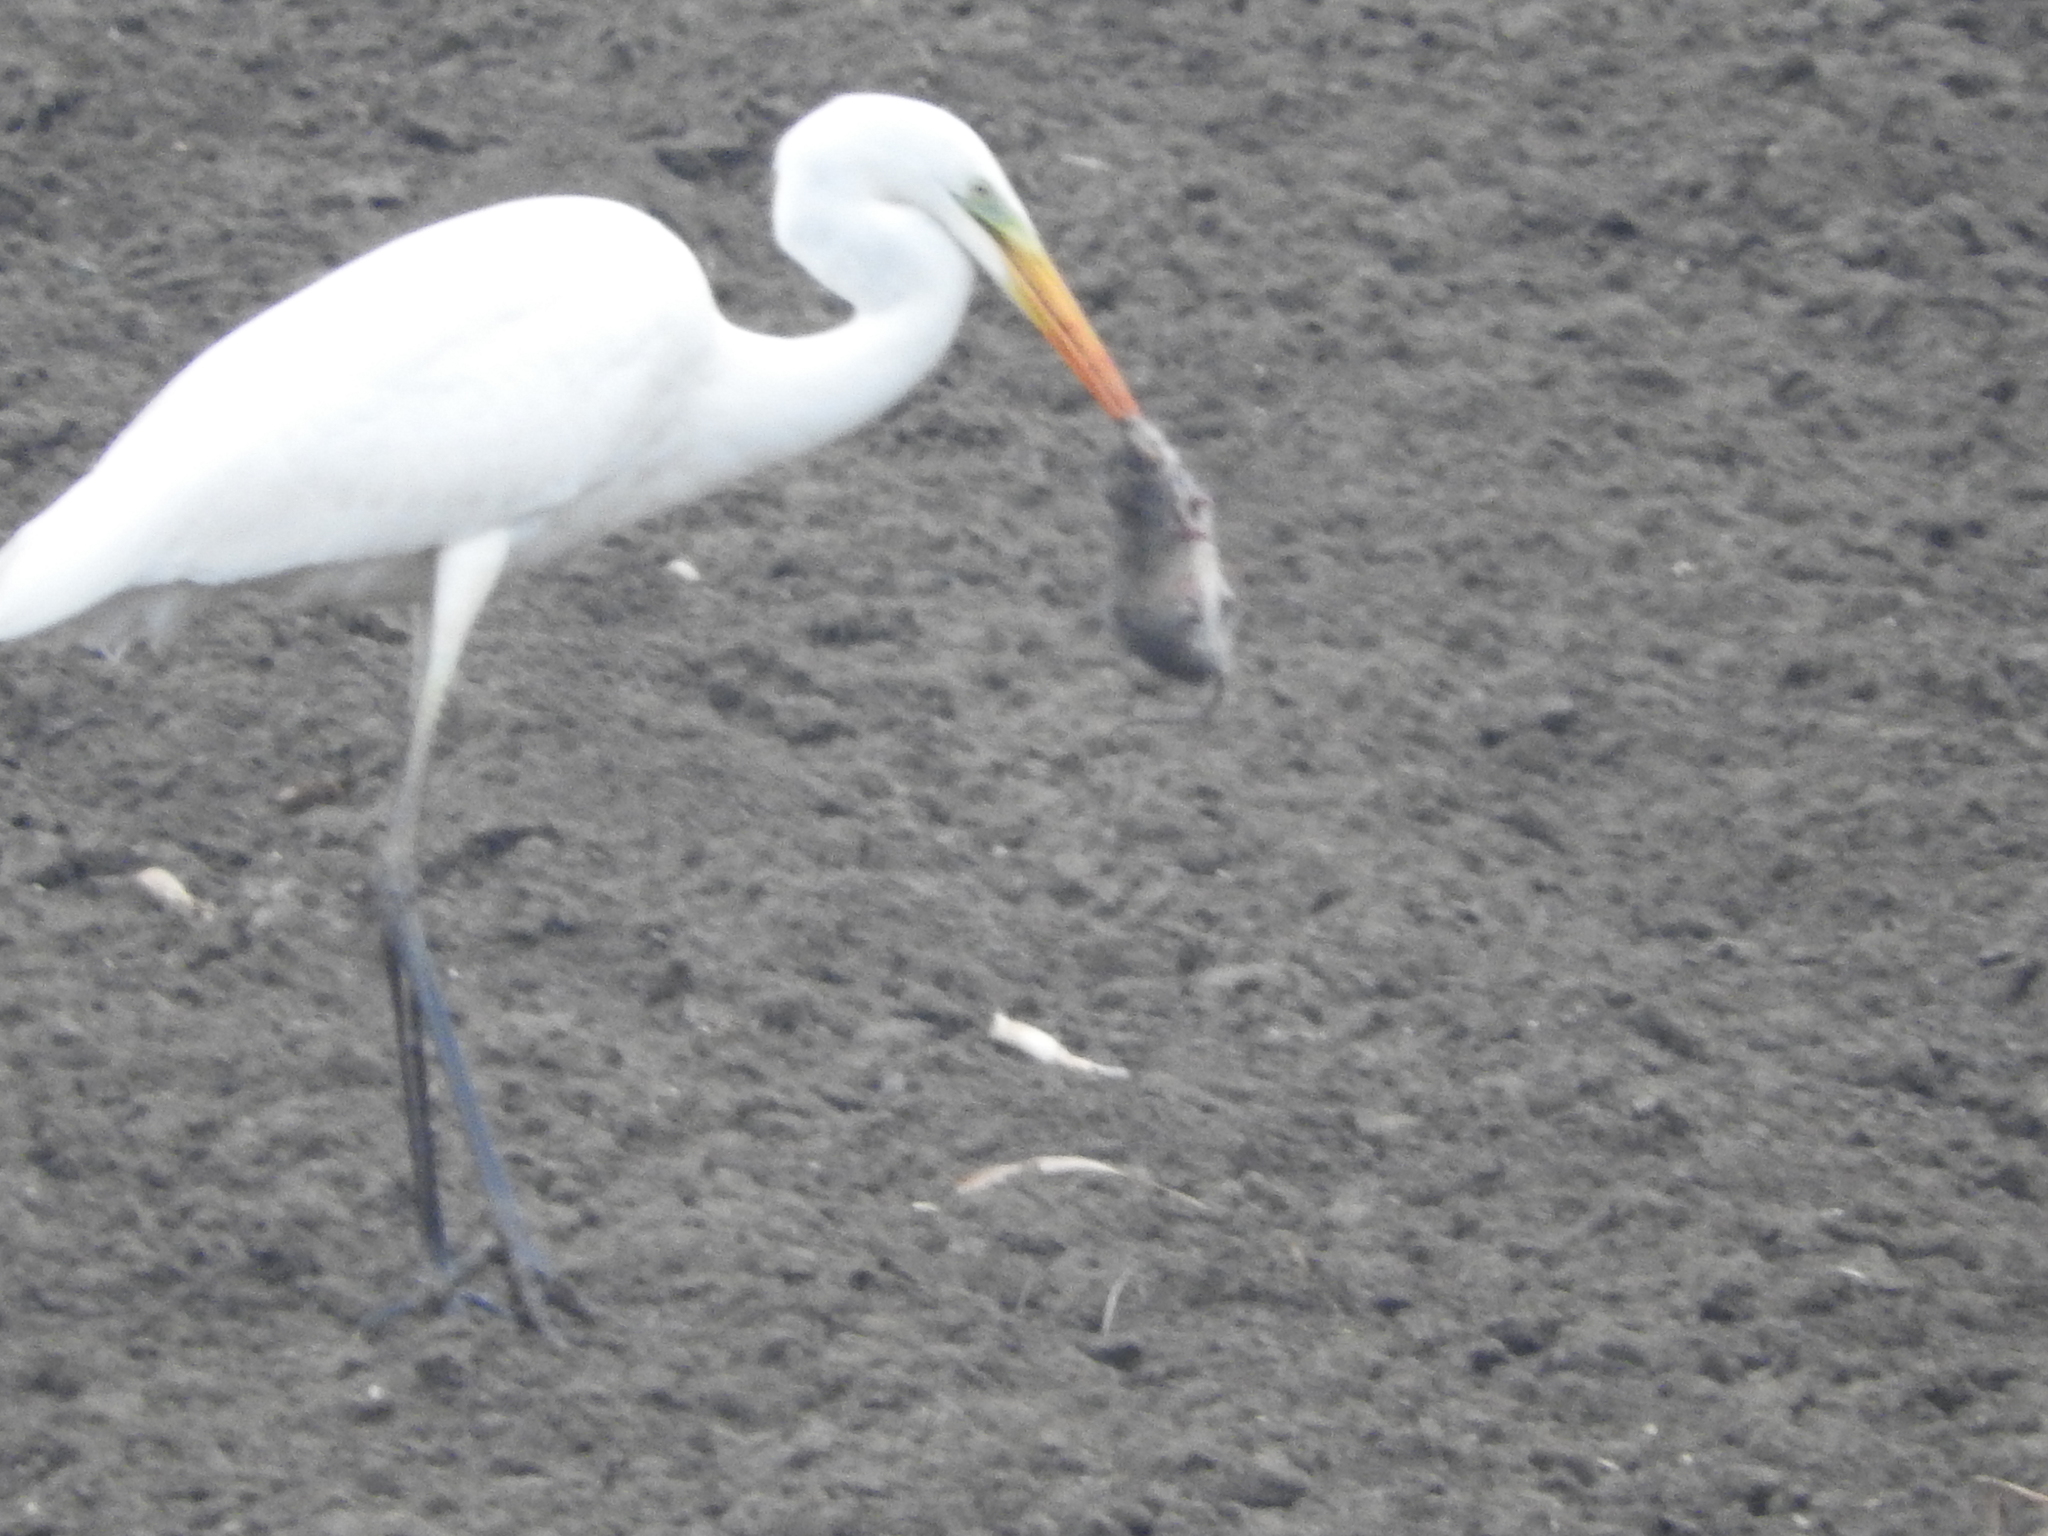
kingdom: Animalia
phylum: Chordata
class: Aves
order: Pelecaniformes
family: Ardeidae
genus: Ardea
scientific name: Ardea alba
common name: Great egret
